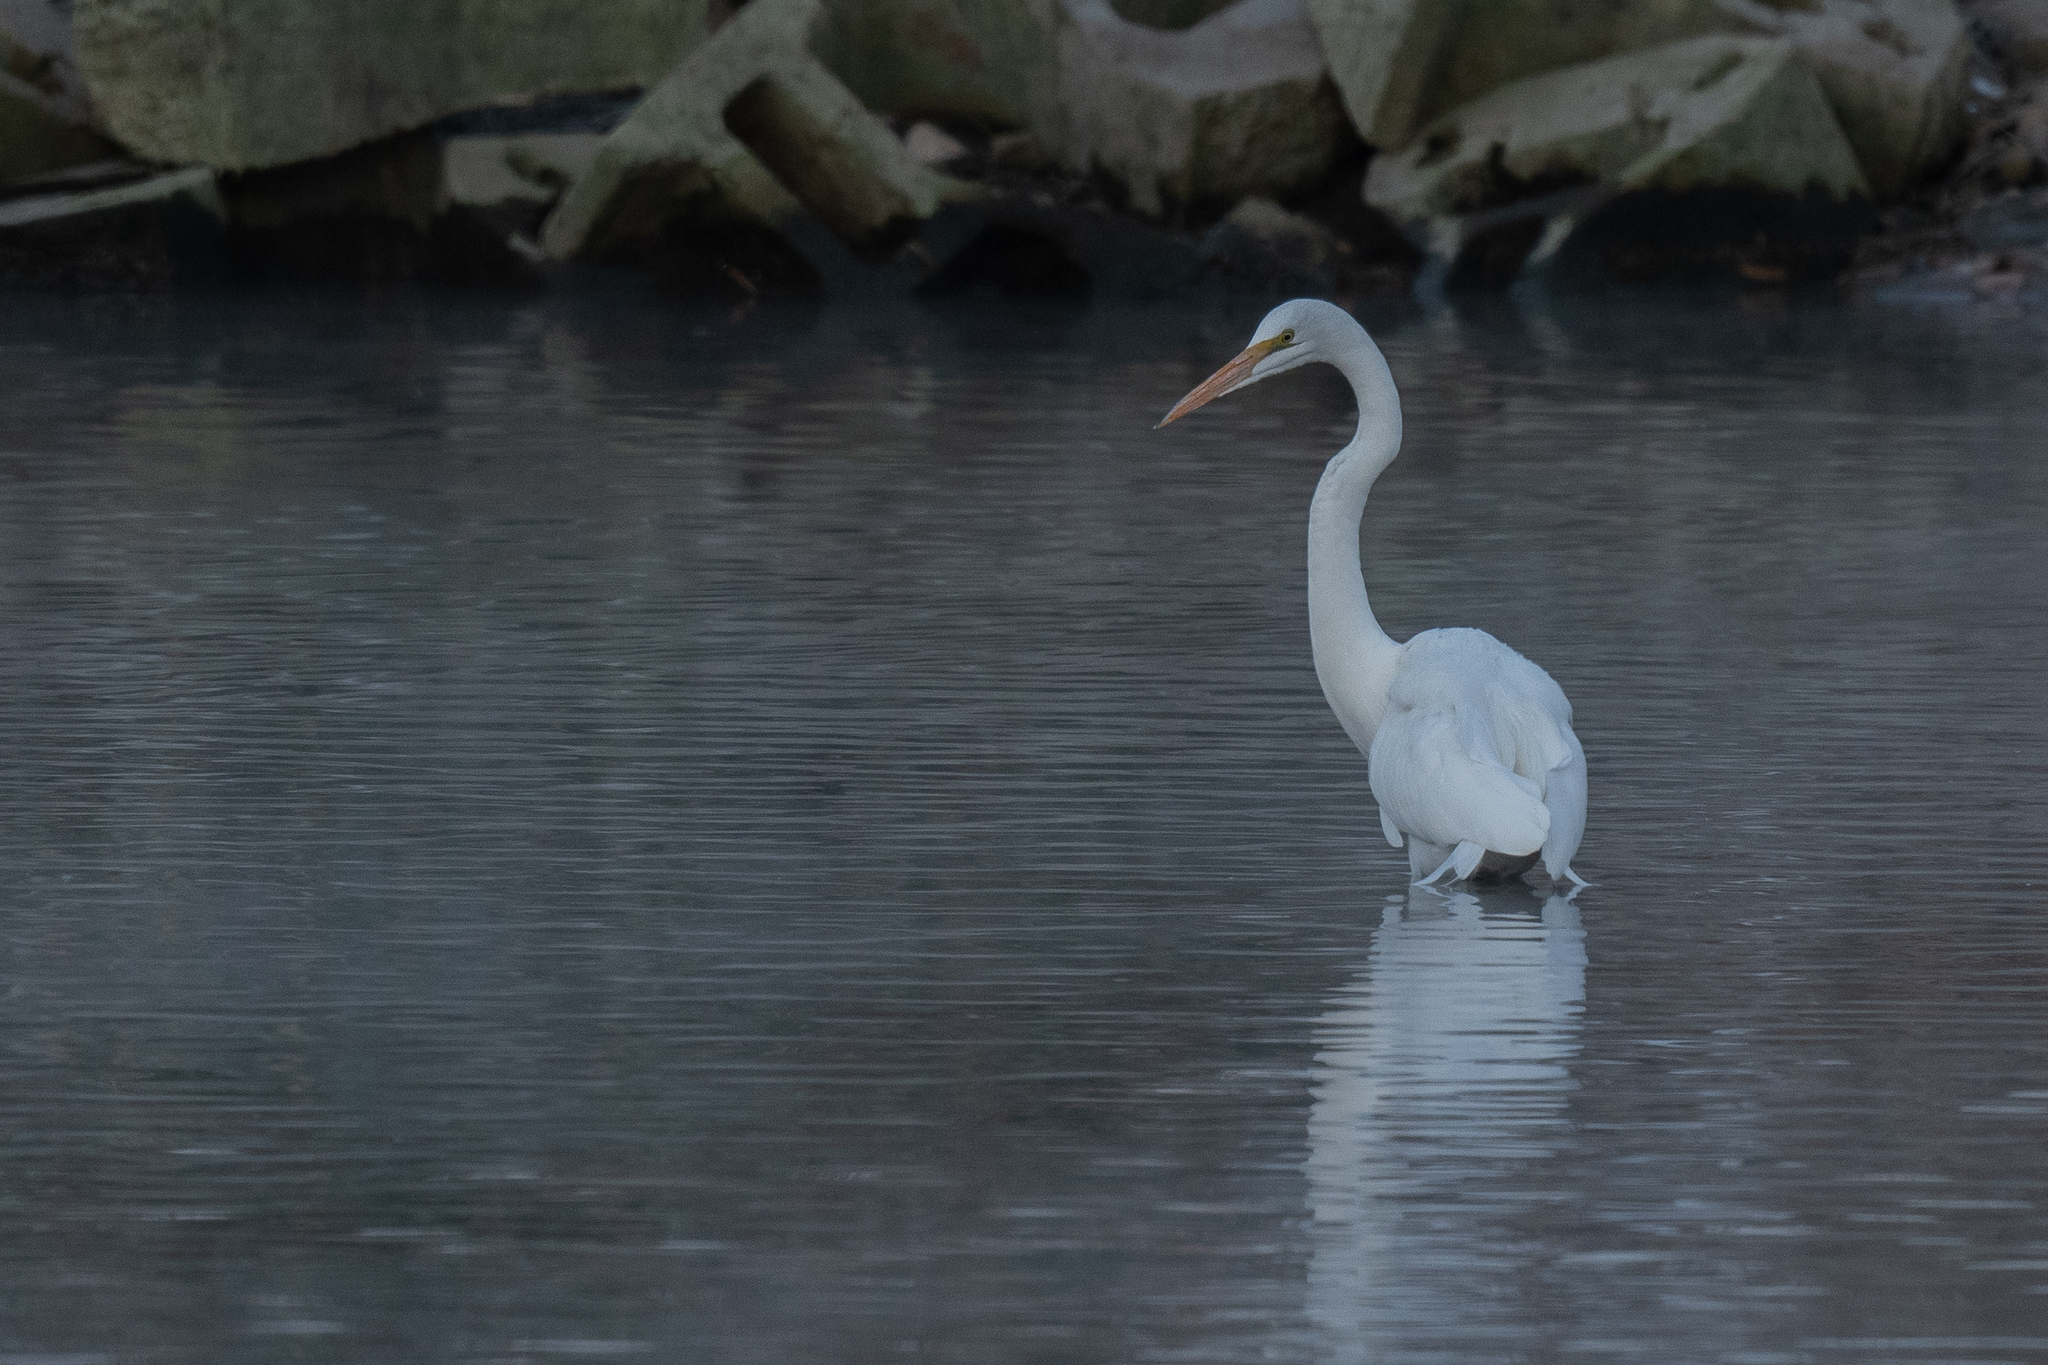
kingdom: Animalia
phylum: Chordata
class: Aves
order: Pelecaniformes
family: Ardeidae
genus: Ardea
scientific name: Ardea alba
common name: Great egret
